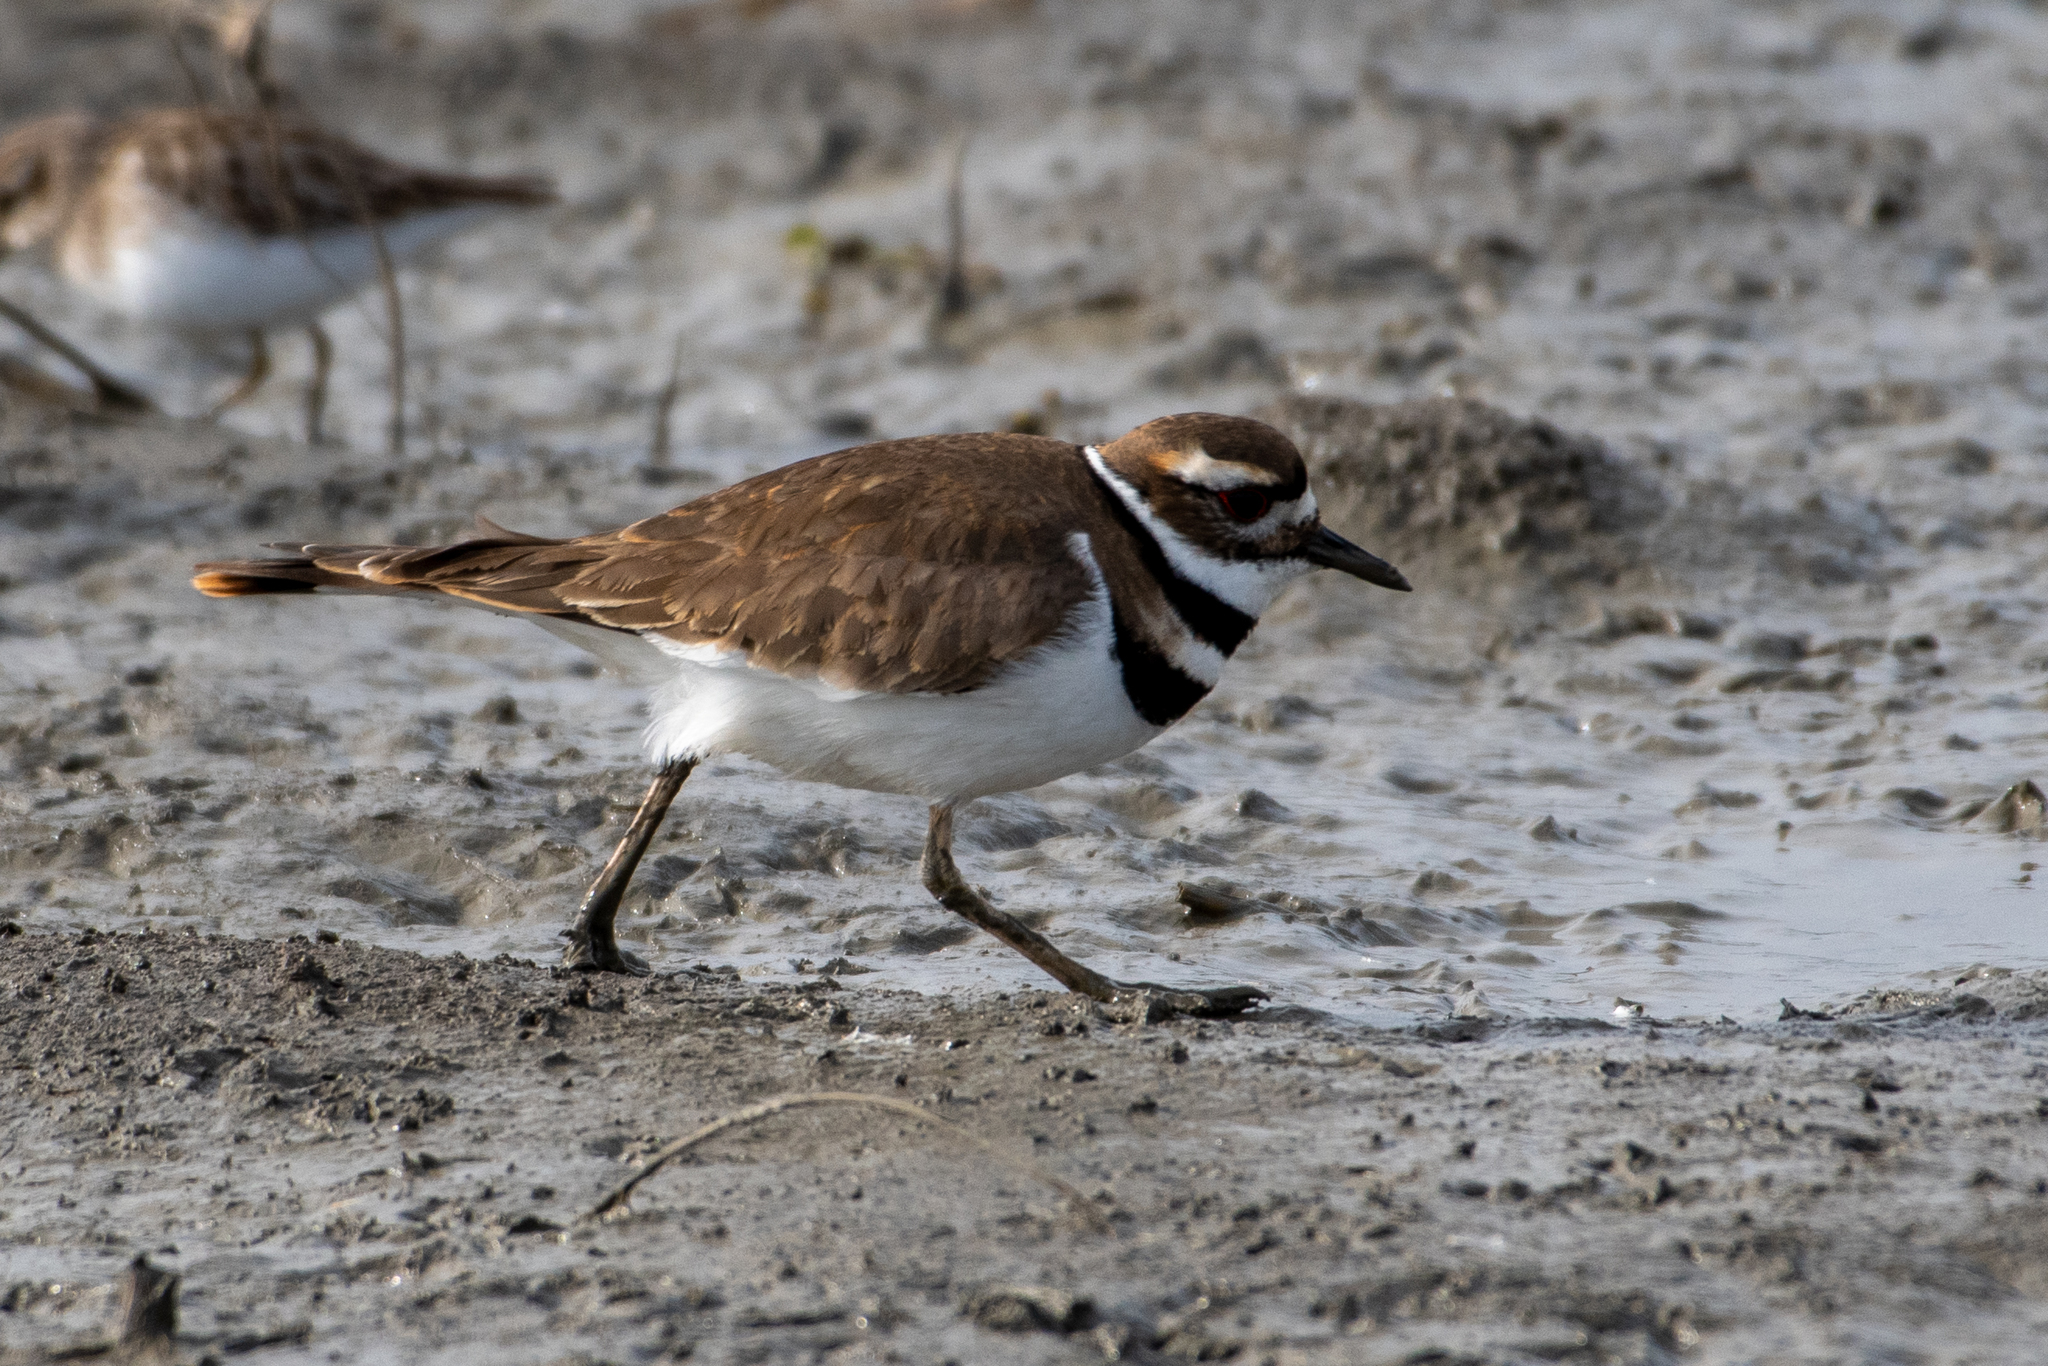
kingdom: Animalia
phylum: Chordata
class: Aves
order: Charadriiformes
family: Charadriidae
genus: Charadrius
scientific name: Charadrius vociferus
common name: Killdeer
